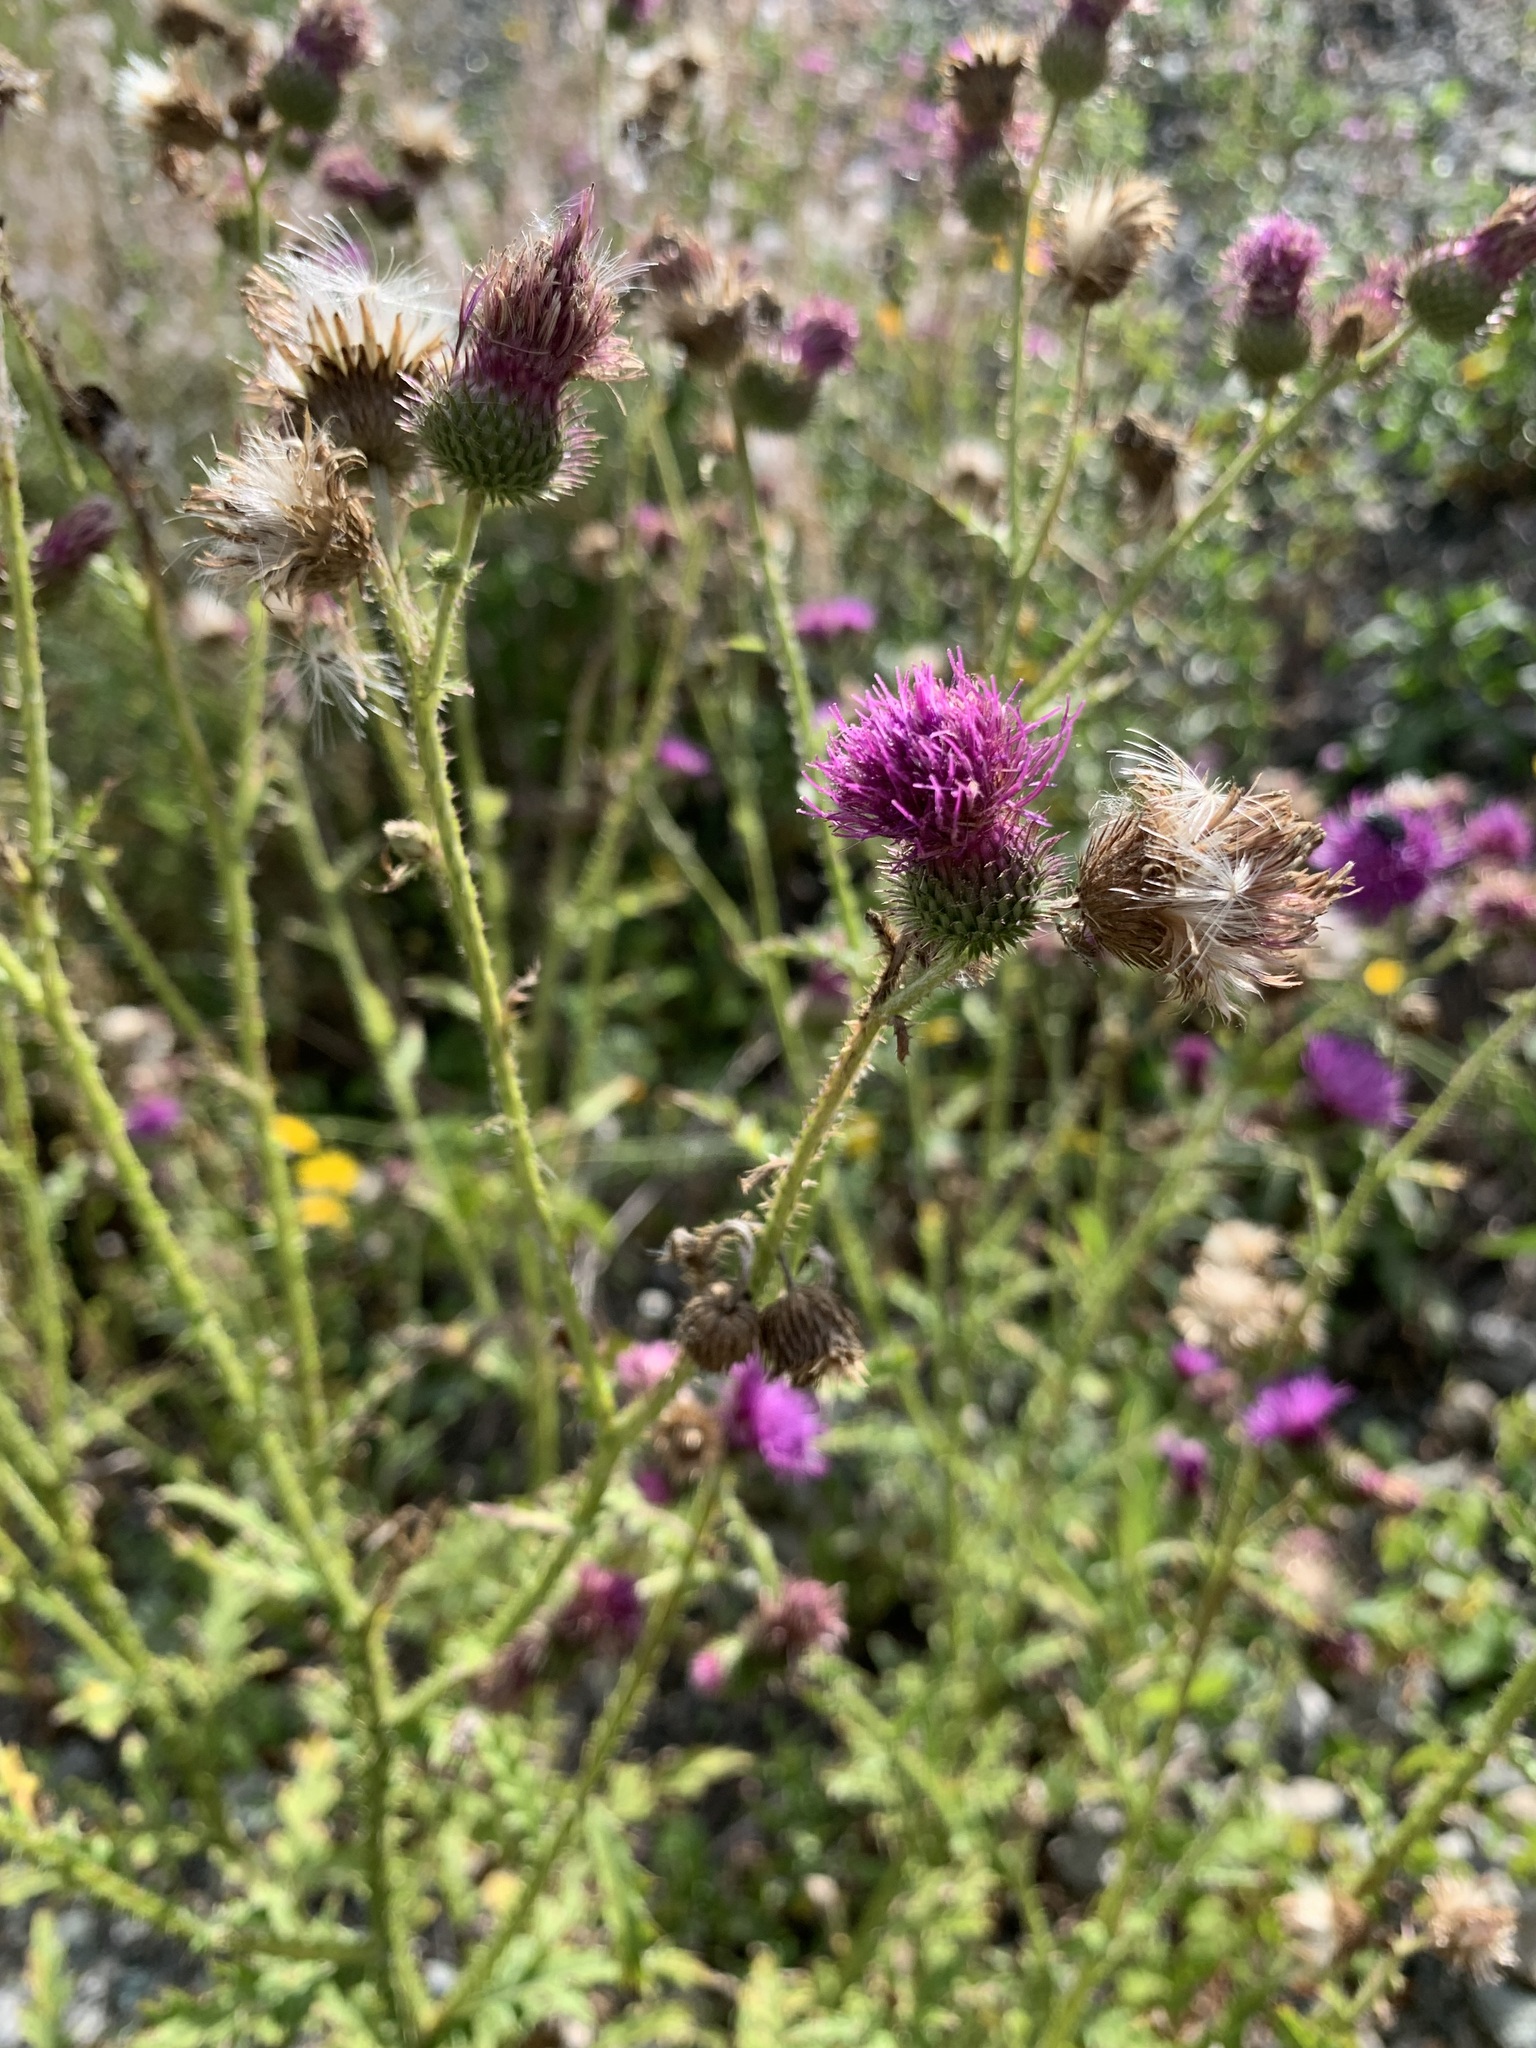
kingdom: Plantae
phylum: Tracheophyta
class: Magnoliopsida
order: Asterales
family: Asteraceae
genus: Carduus
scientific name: Carduus crispus
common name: Welted thistle
